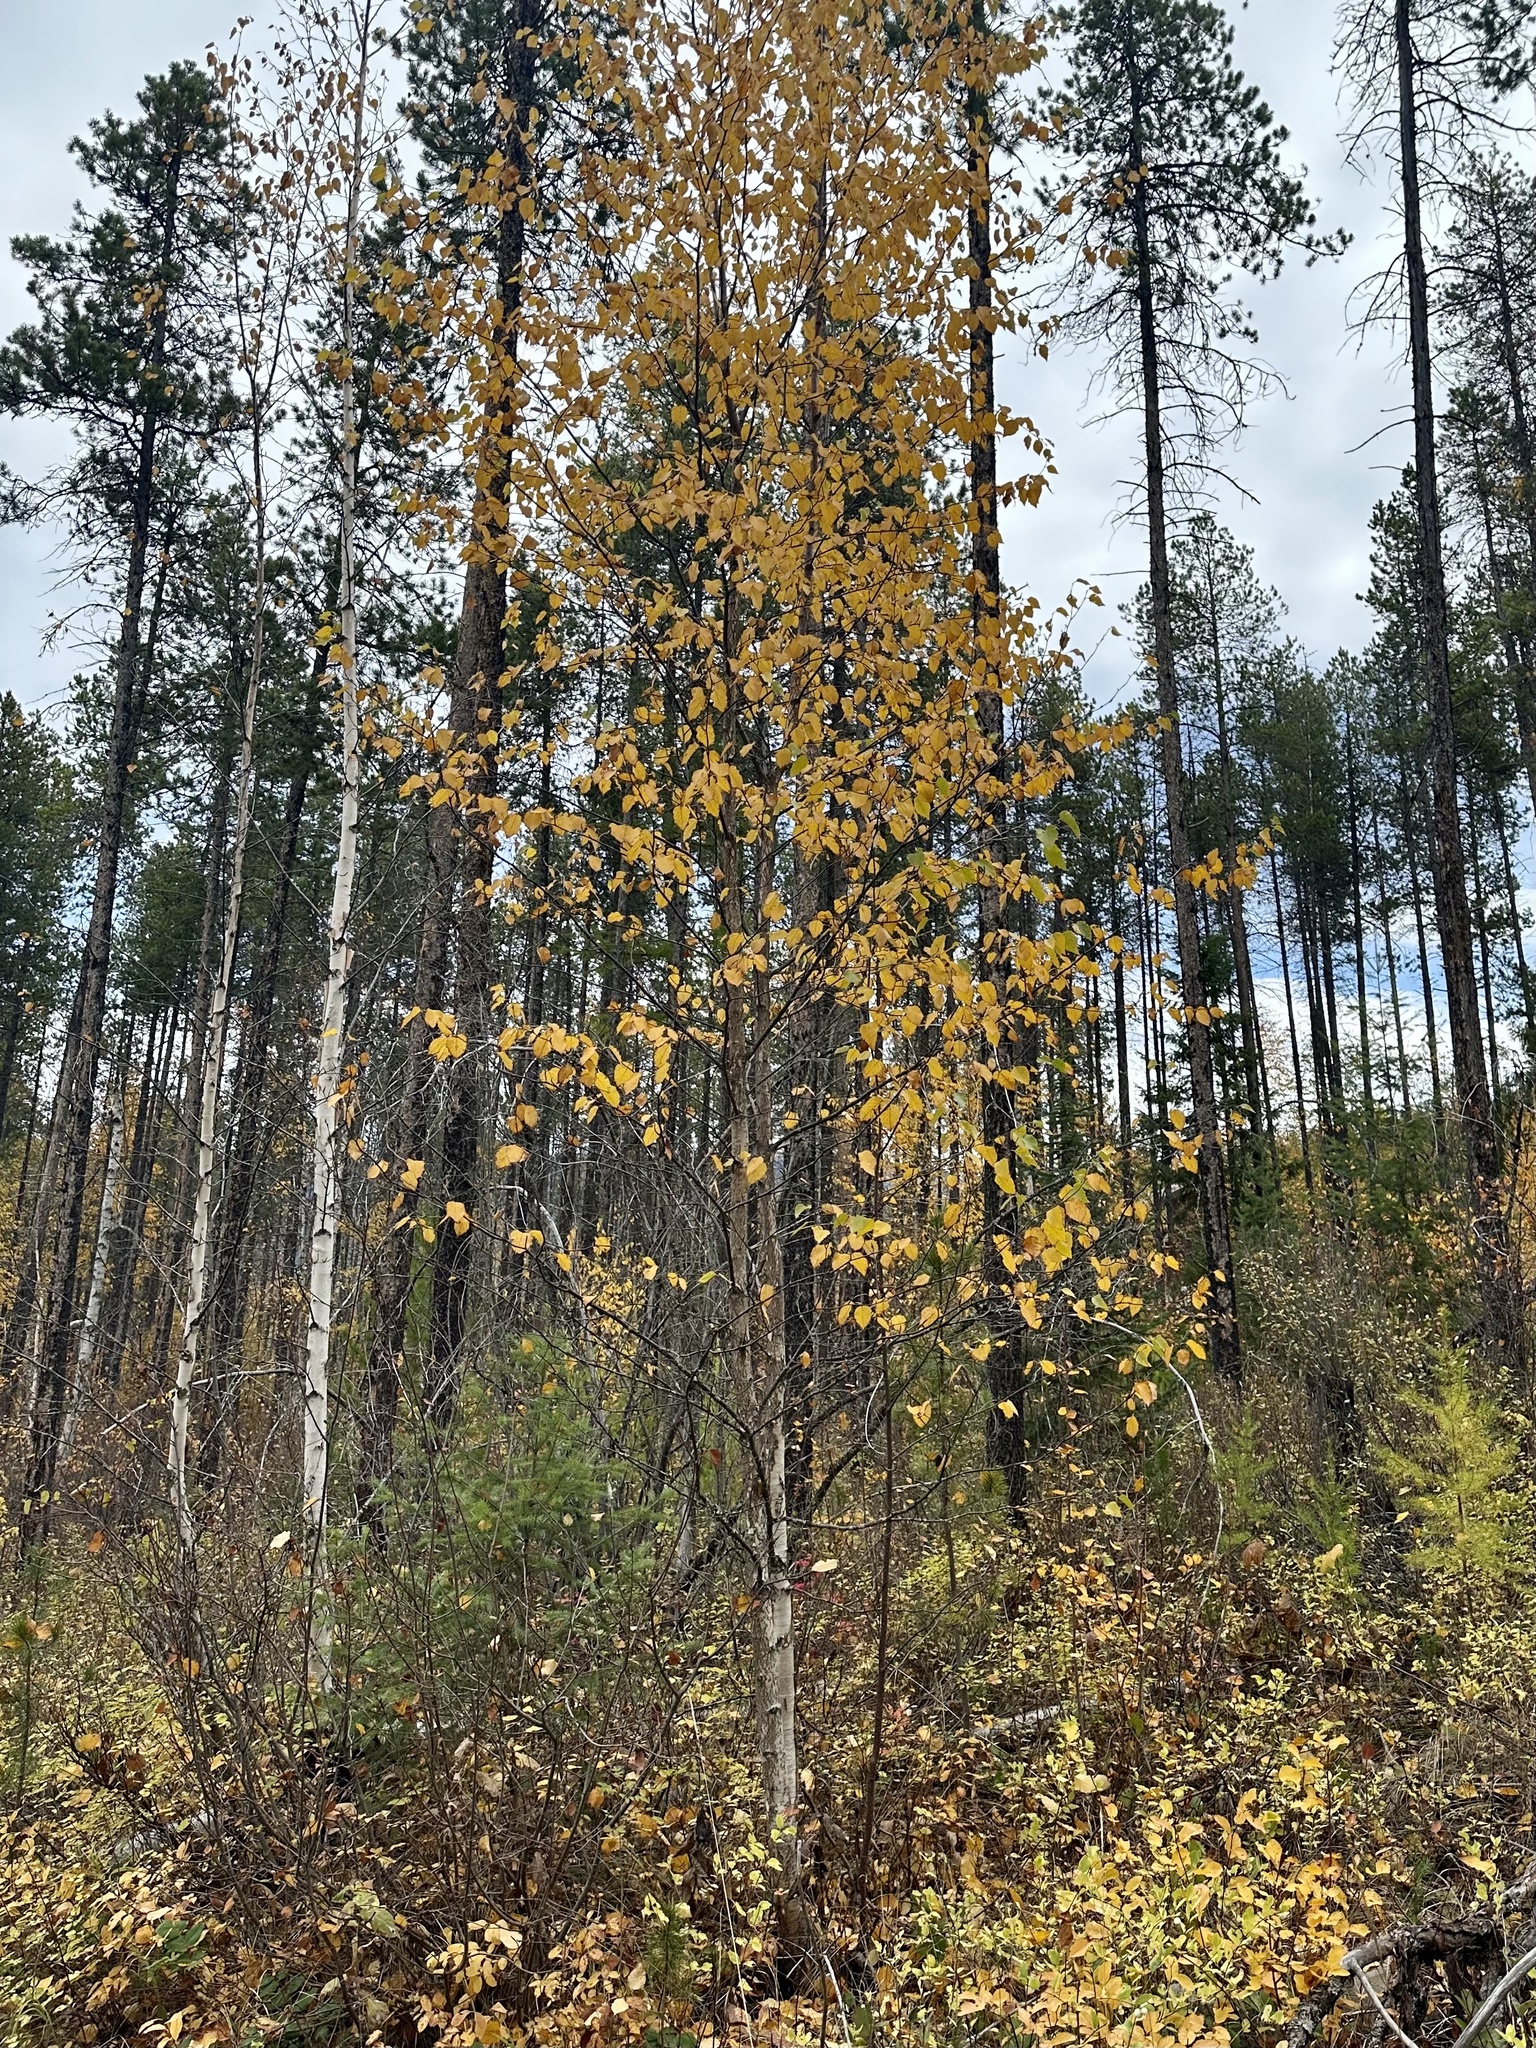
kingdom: Plantae
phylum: Tracheophyta
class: Magnoliopsida
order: Fagales
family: Betulaceae
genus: Betula
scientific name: Betula papyrifera
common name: Paper birch
